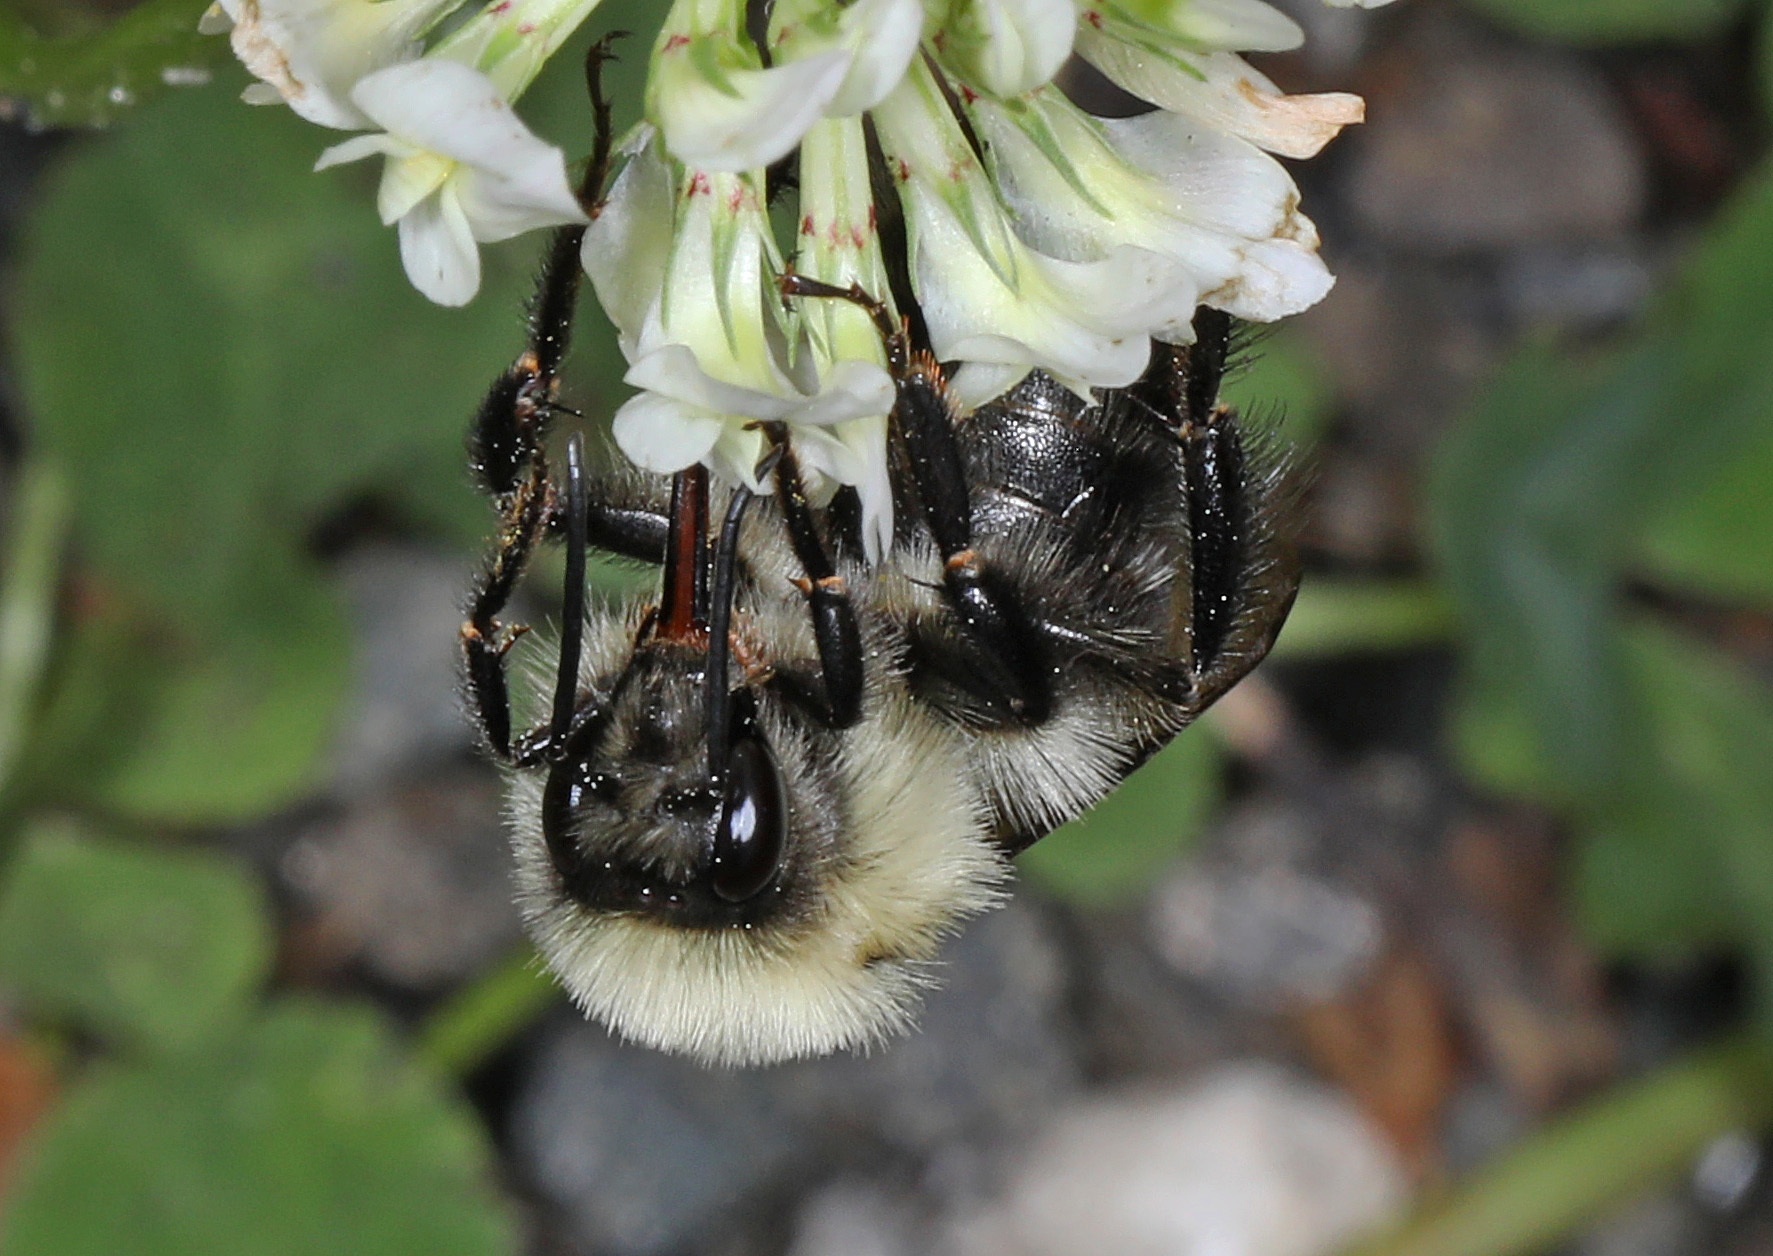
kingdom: Animalia
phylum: Arthropoda
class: Insecta
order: Hymenoptera
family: Apidae
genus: Bombus
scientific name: Bombus impatiens
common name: Common eastern bumble bee
